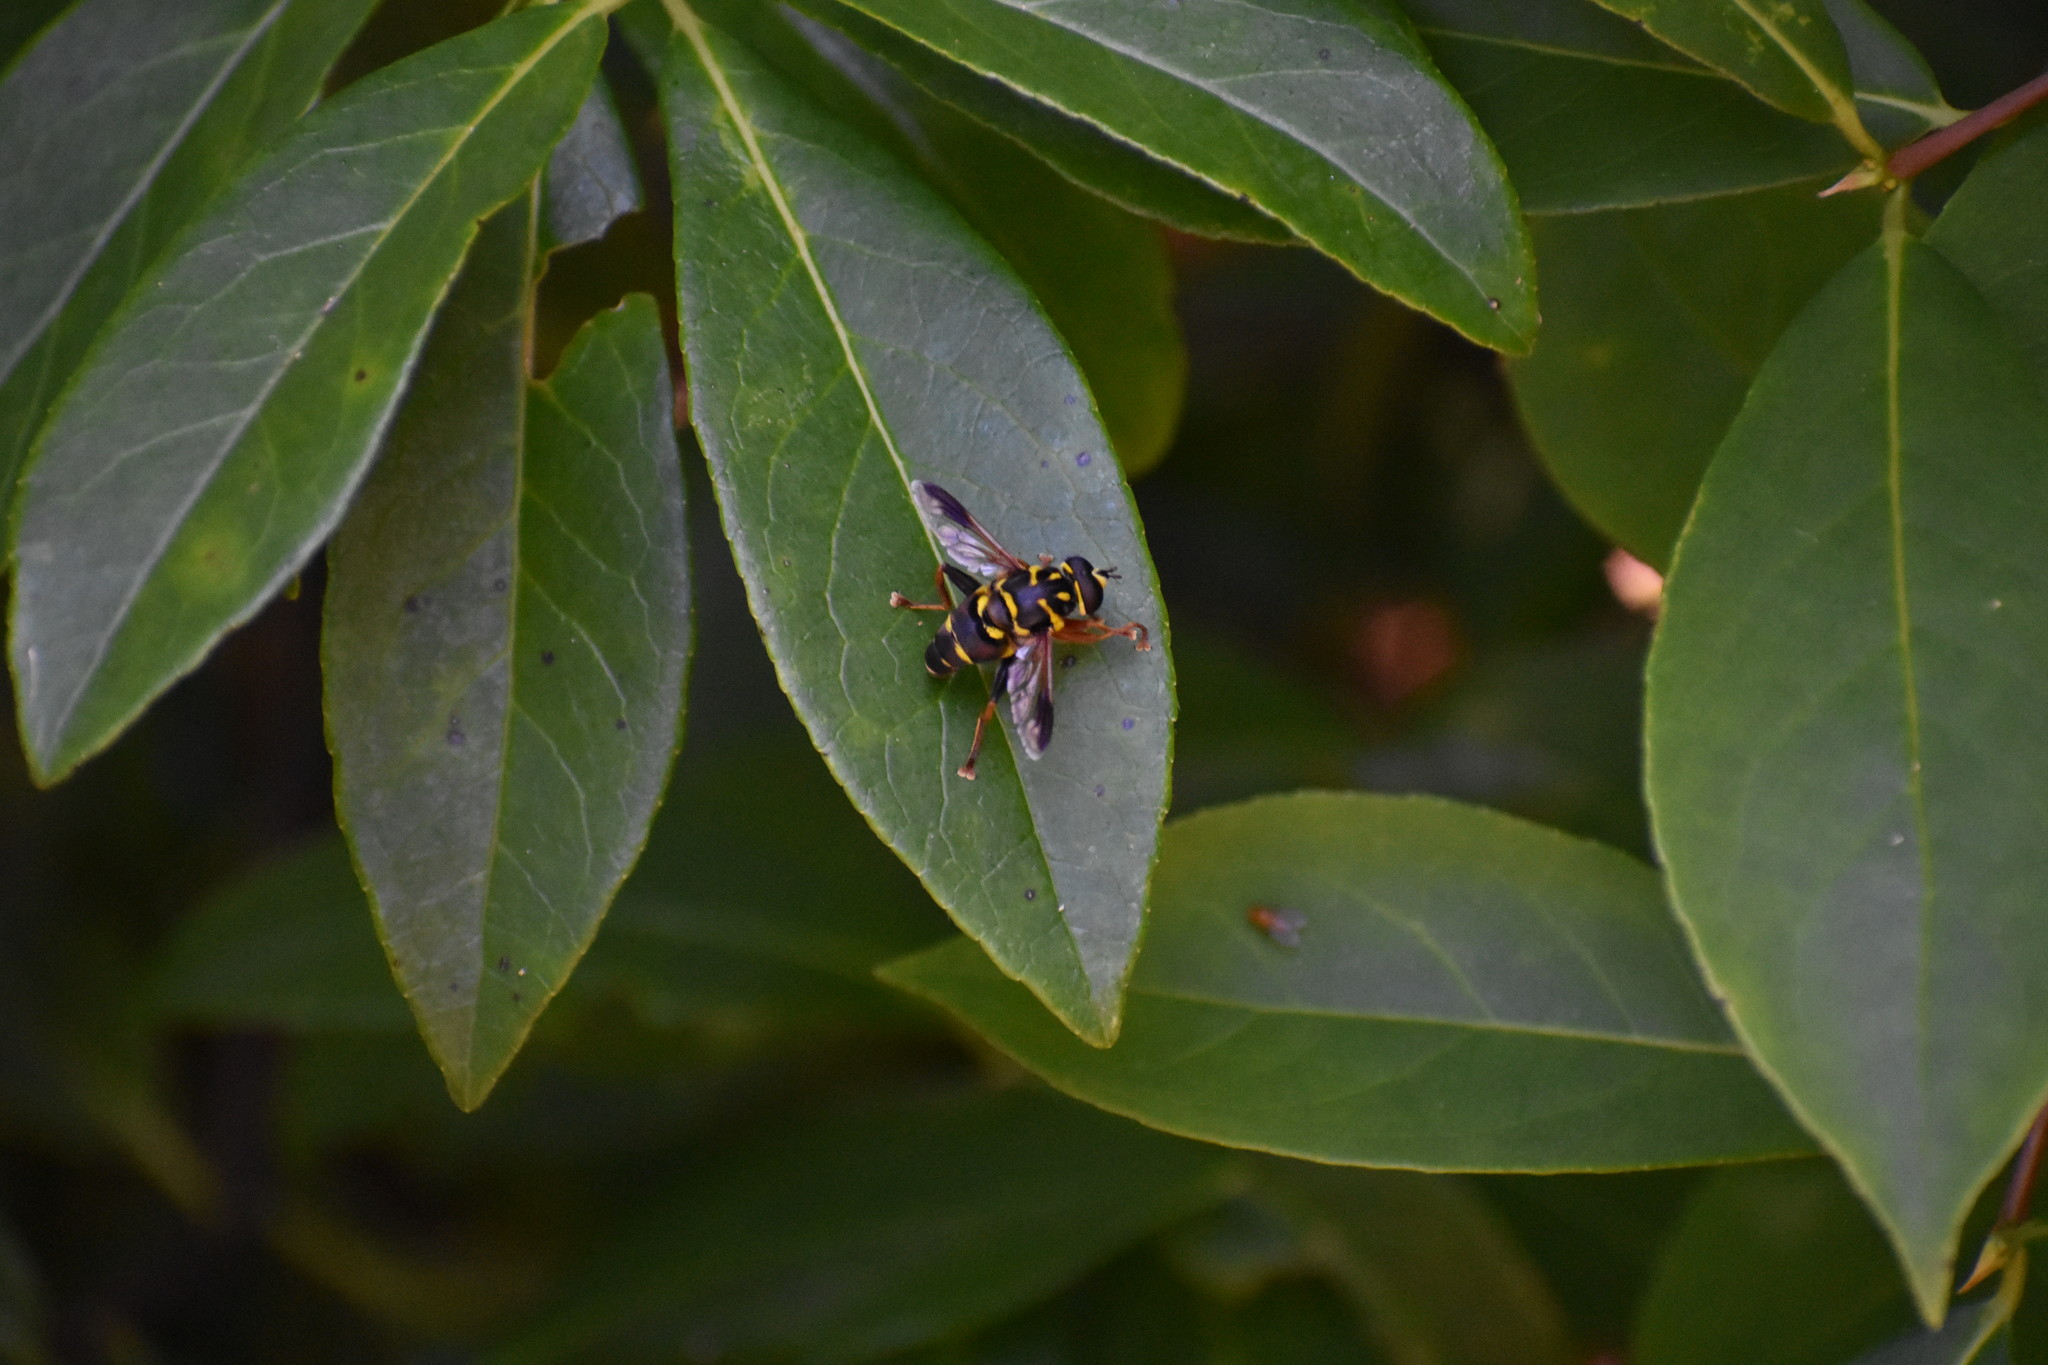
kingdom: Animalia
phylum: Arthropoda
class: Insecta
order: Diptera
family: Syrphidae
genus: Meromacrus
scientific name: Meromacrus acutus
